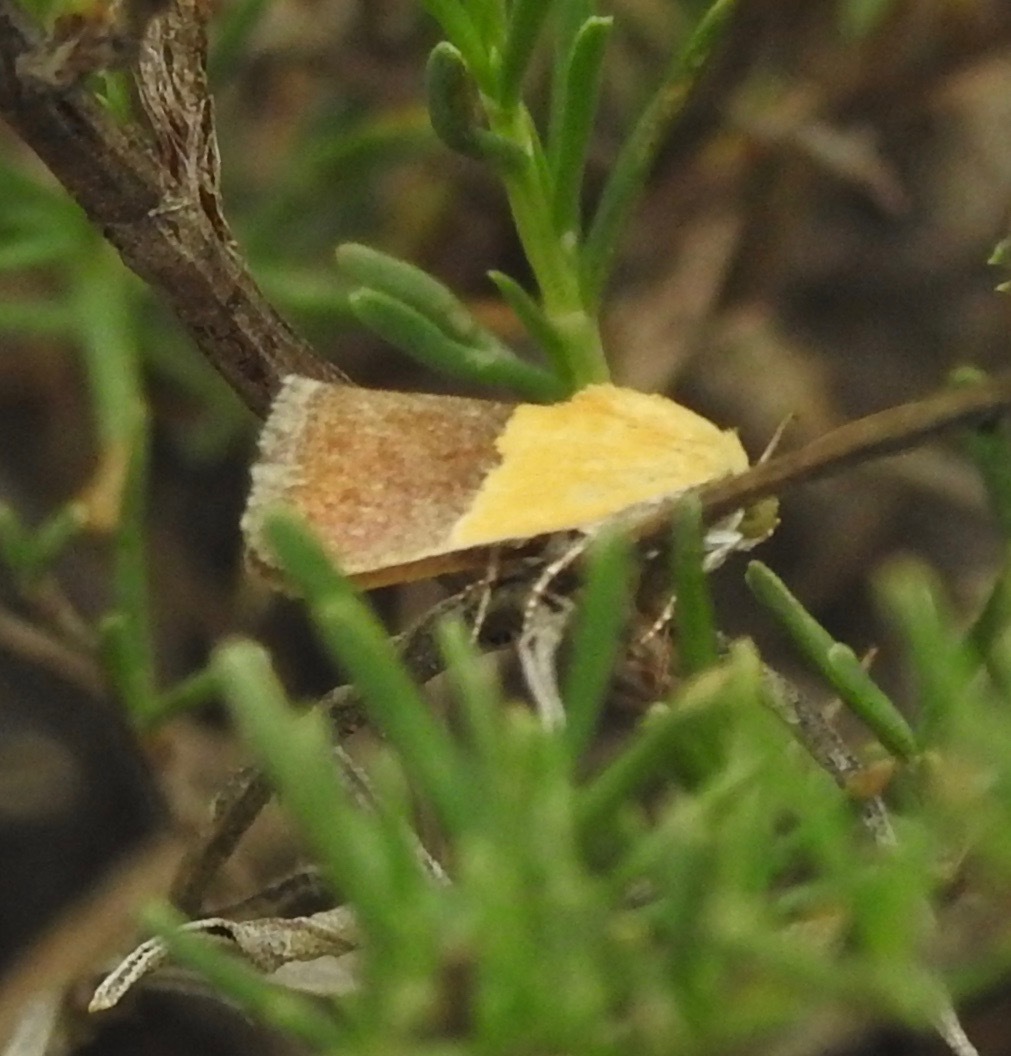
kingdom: Animalia
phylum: Arthropoda
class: Insecta
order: Lepidoptera
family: Noctuidae
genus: Acontia
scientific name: Acontia semiflava
